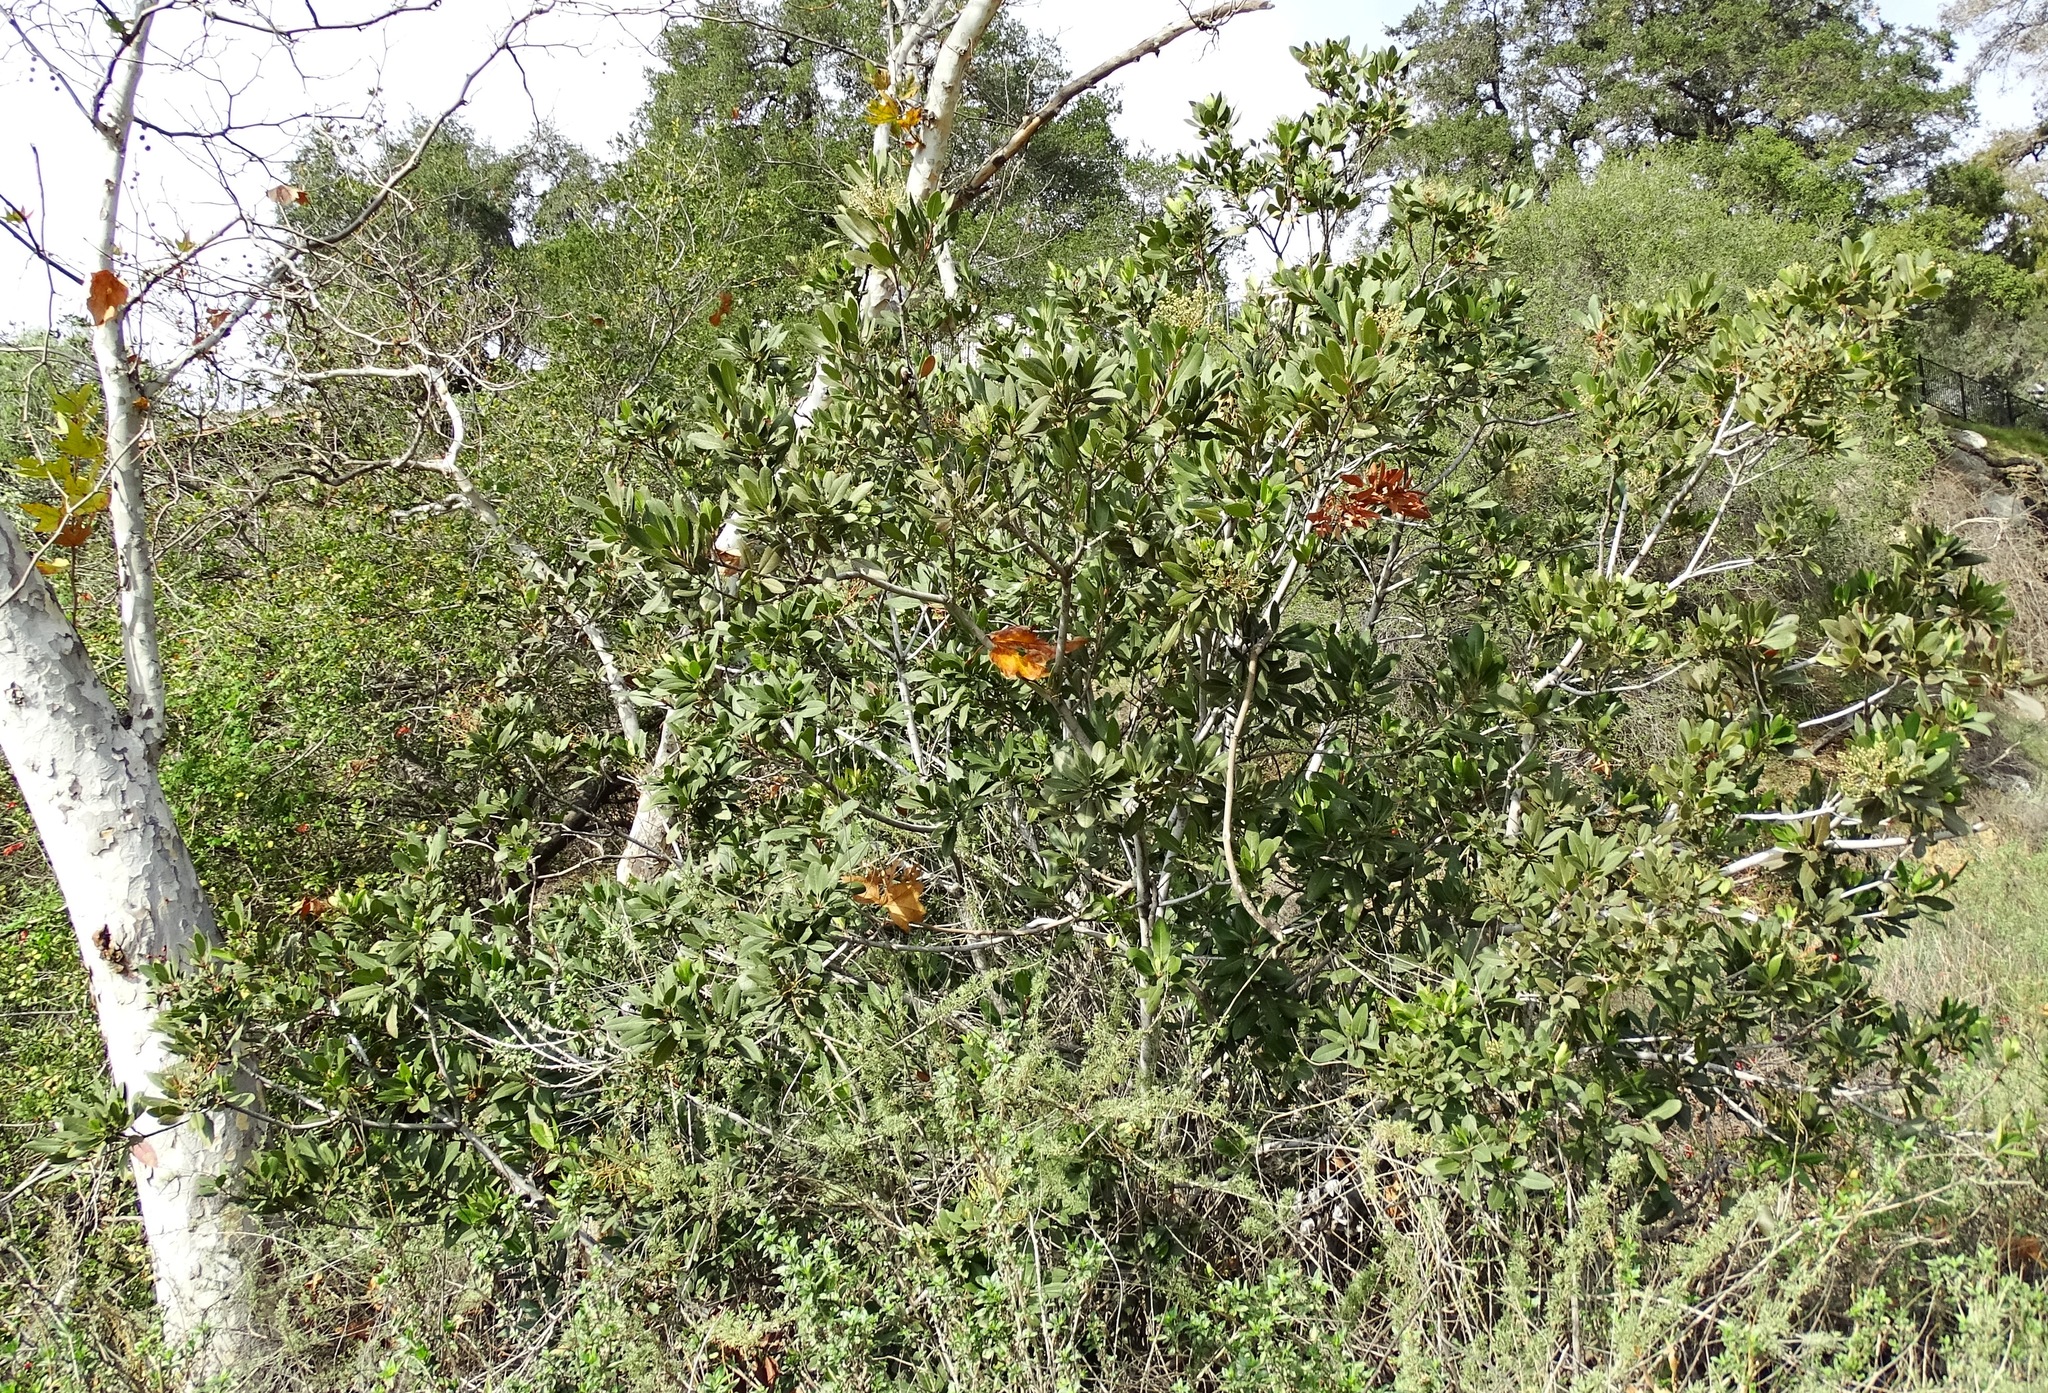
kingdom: Plantae
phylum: Tracheophyta
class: Magnoliopsida
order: Rosales
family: Rosaceae
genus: Heteromeles
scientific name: Heteromeles arbutifolia
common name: California-holly
